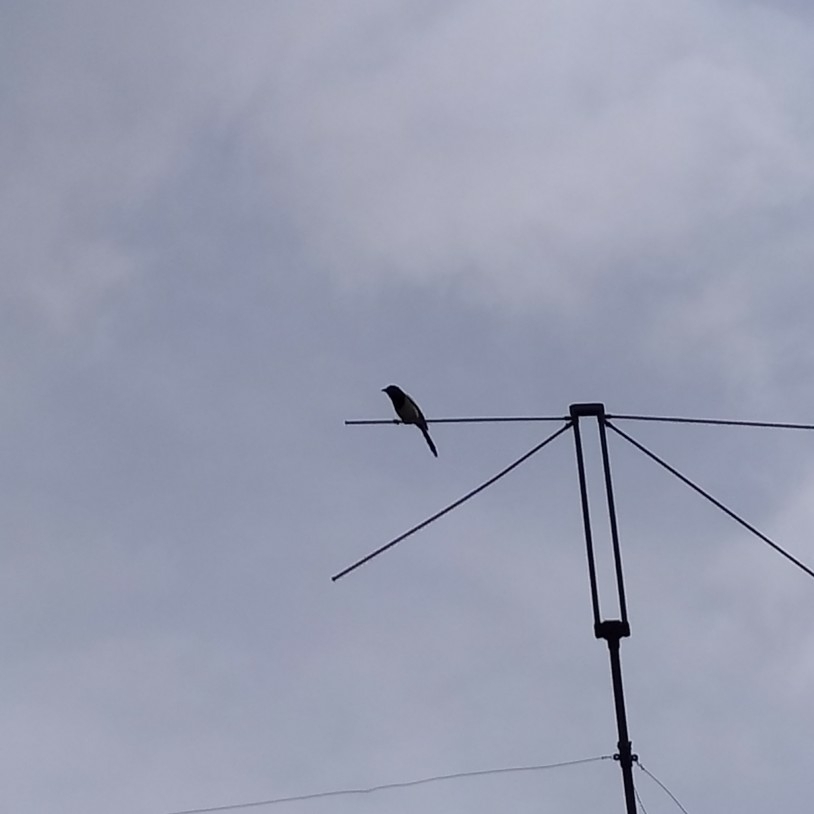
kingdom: Animalia
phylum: Chordata
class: Aves
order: Passeriformes
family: Corvidae
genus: Pica
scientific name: Pica pica
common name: Eurasian magpie
